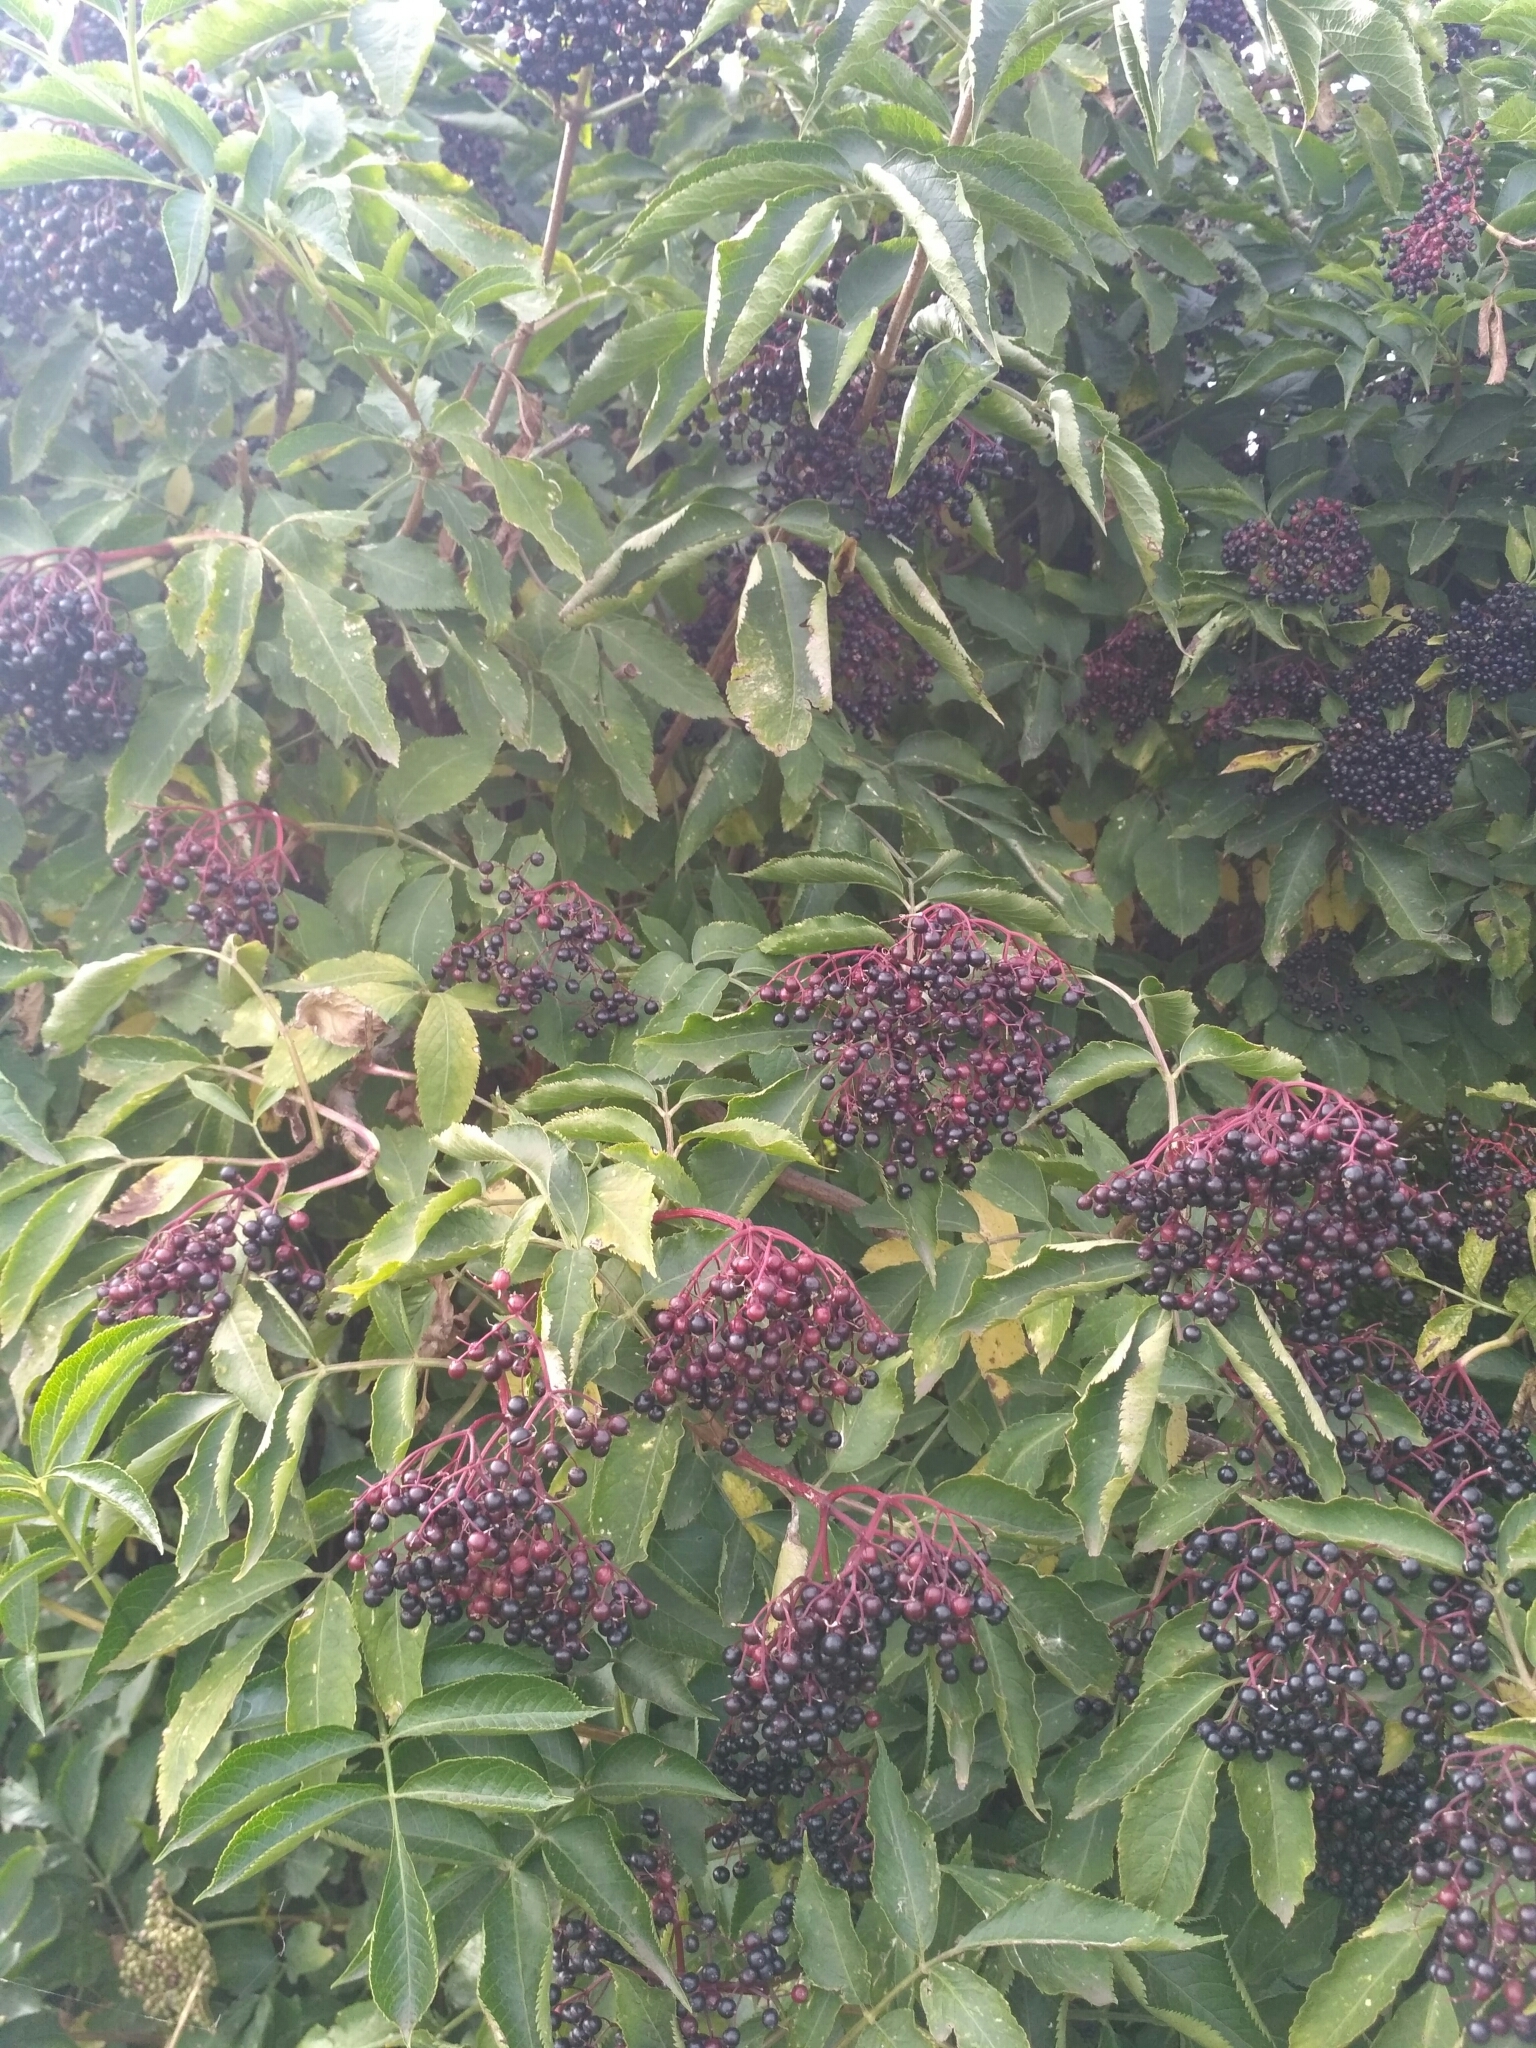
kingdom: Plantae
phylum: Tracheophyta
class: Magnoliopsida
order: Dipsacales
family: Viburnaceae
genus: Sambucus
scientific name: Sambucus nigra
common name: Elder
